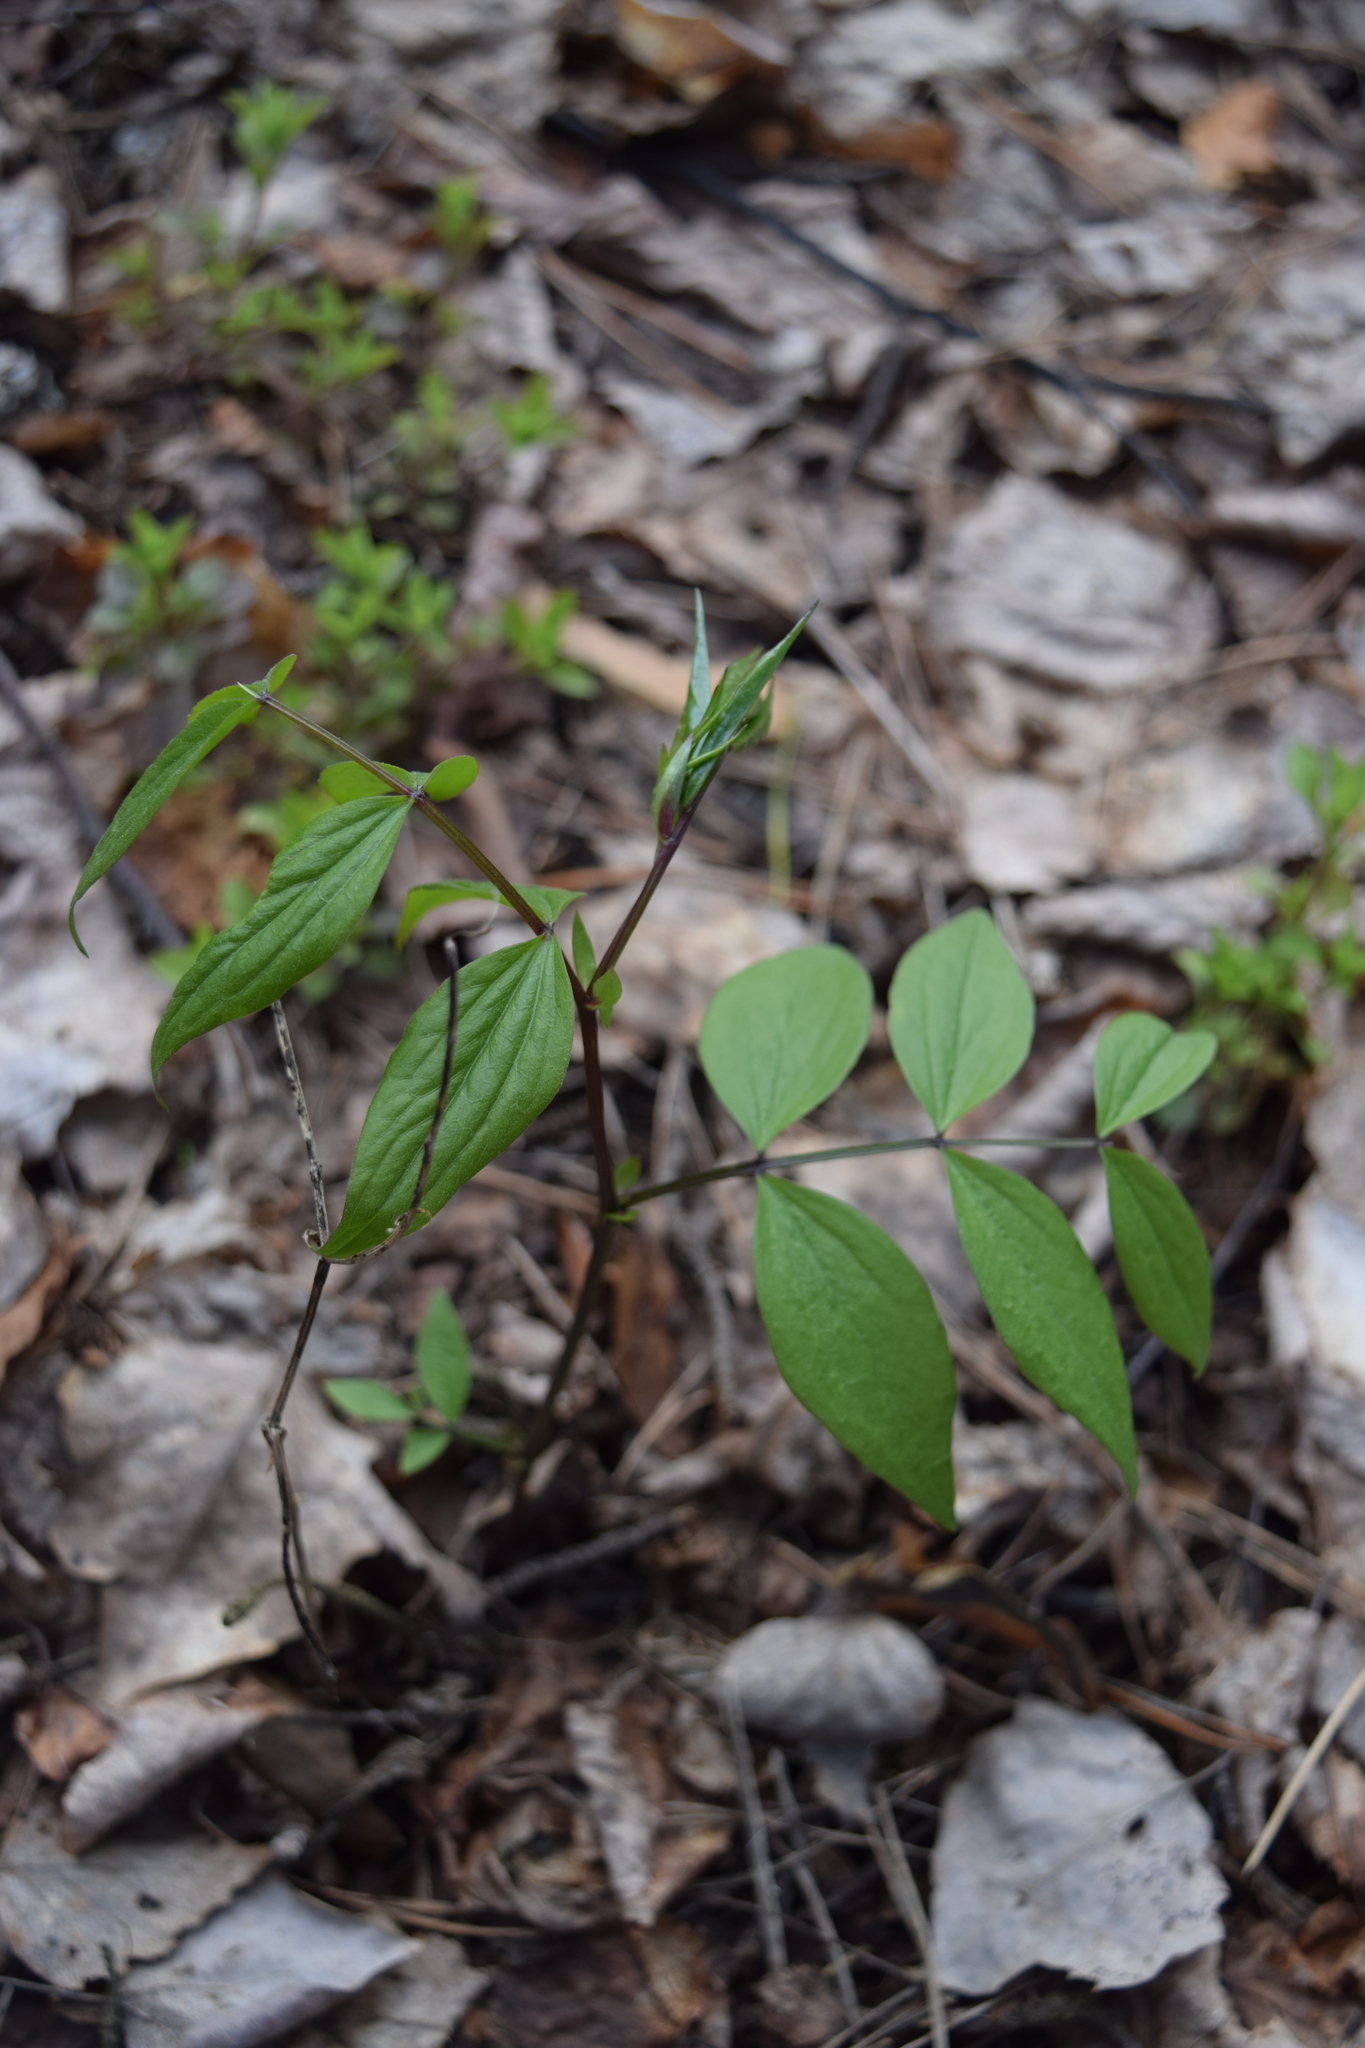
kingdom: Plantae
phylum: Tracheophyta
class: Magnoliopsida
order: Fabales
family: Fabaceae
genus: Lathyrus
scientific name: Lathyrus vernus
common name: Spring pea
